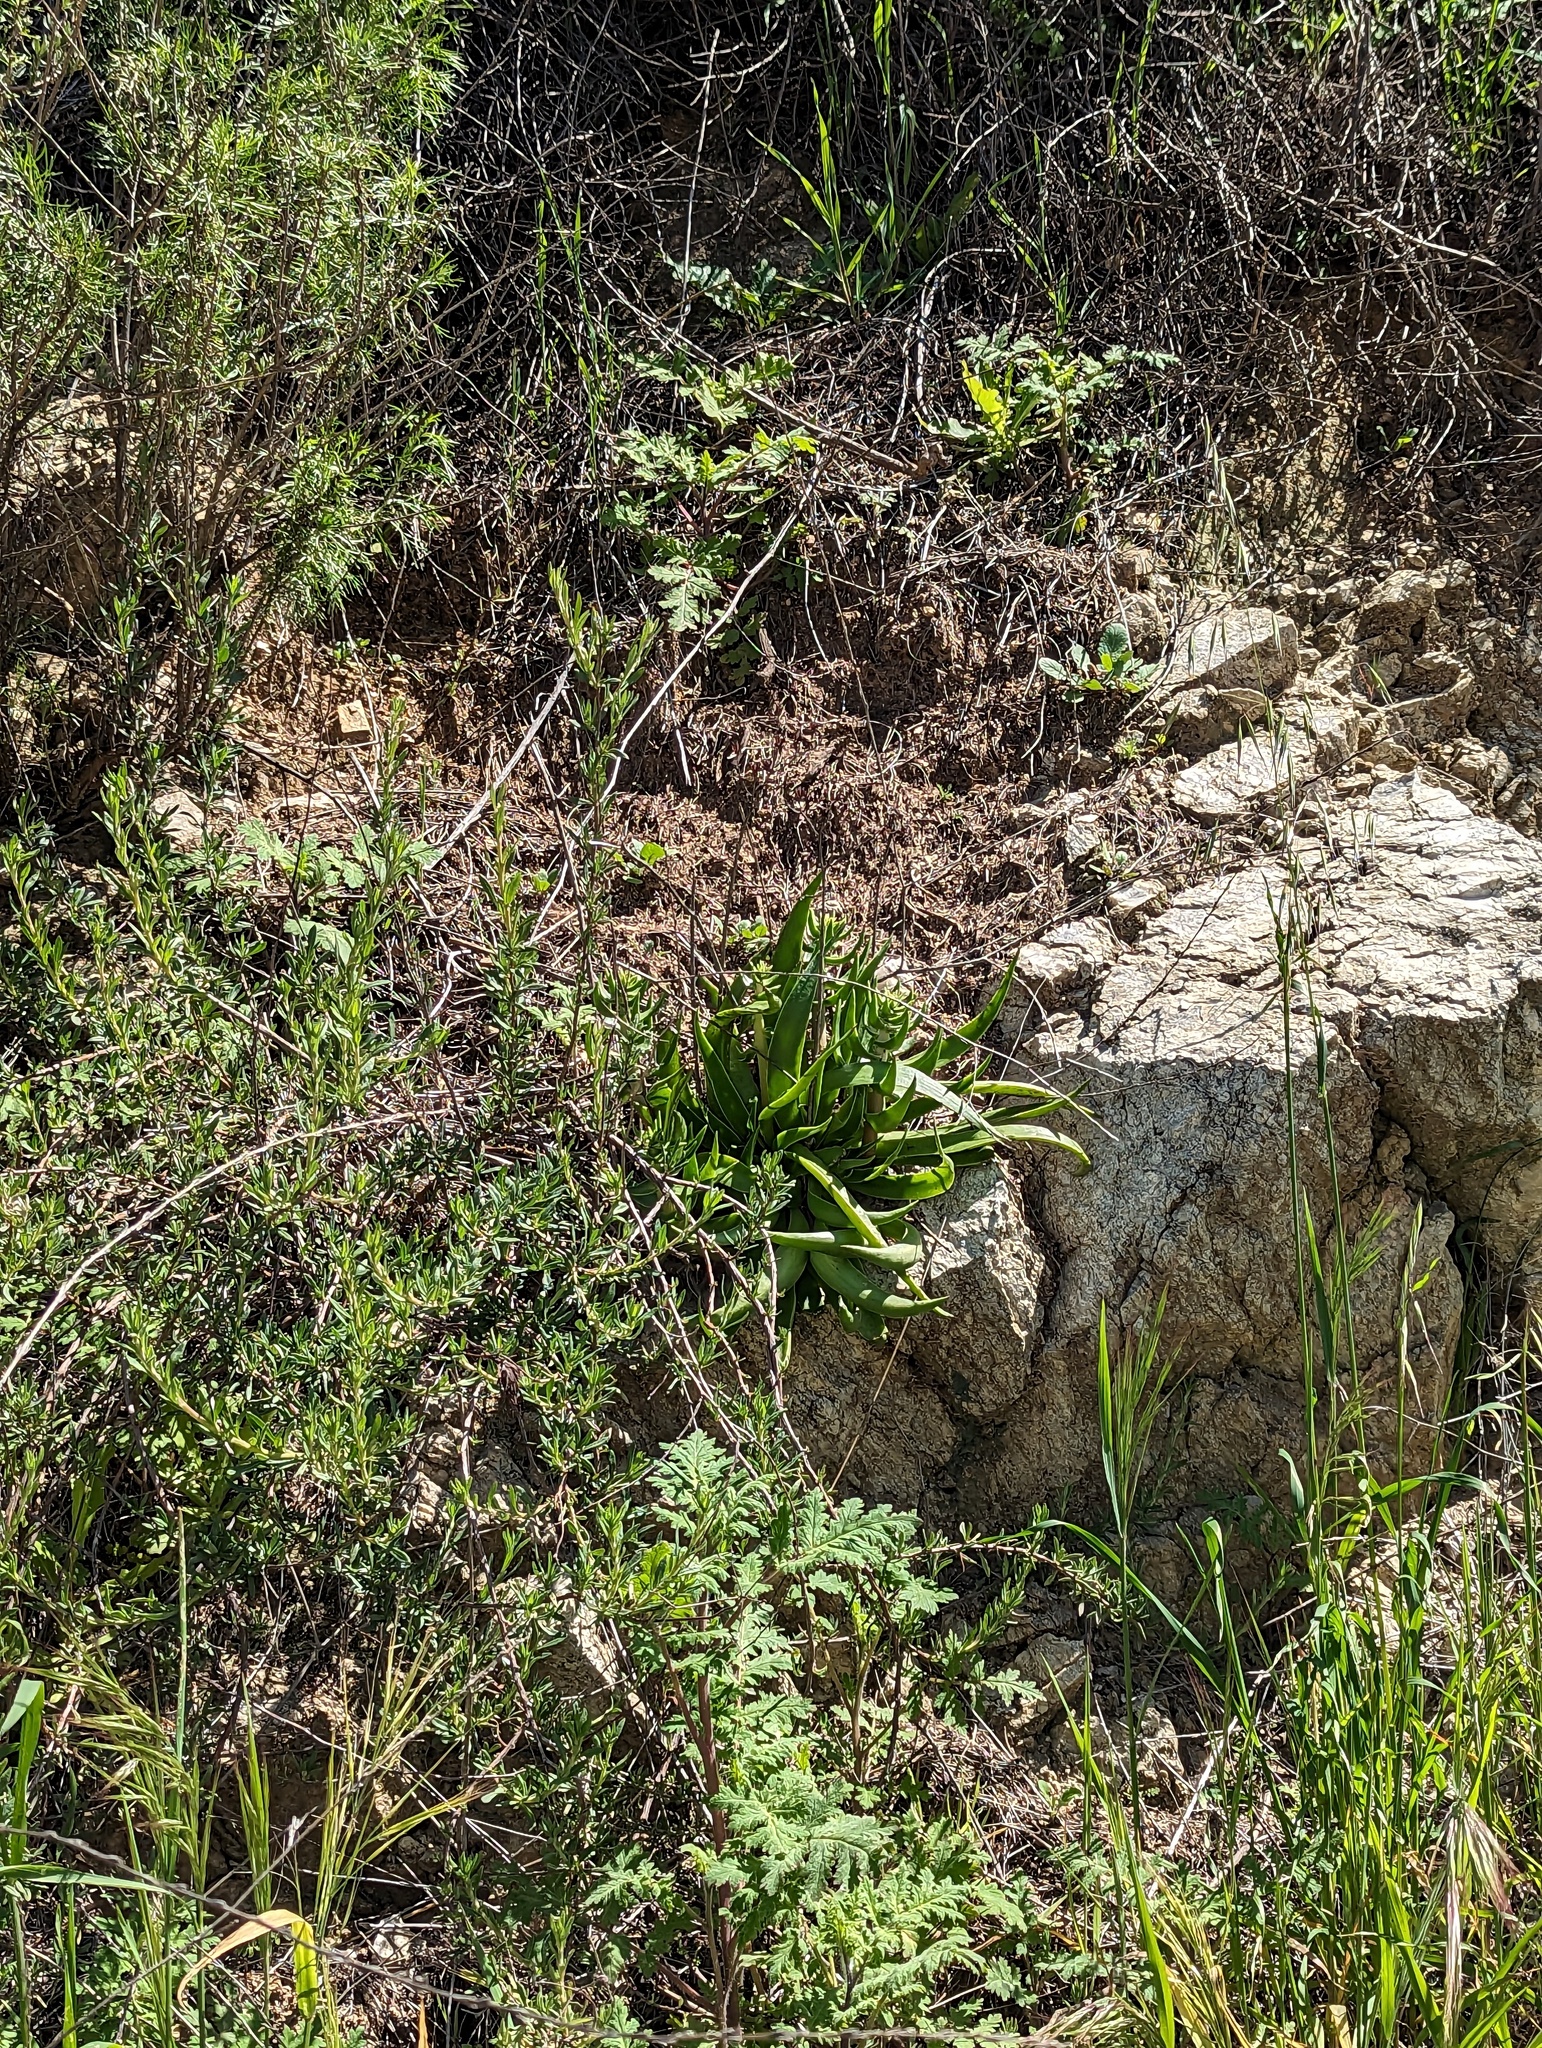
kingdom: Plantae
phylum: Tracheophyta
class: Magnoliopsida
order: Saxifragales
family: Crassulaceae
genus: Dudleya
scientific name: Dudleya lanceolata
